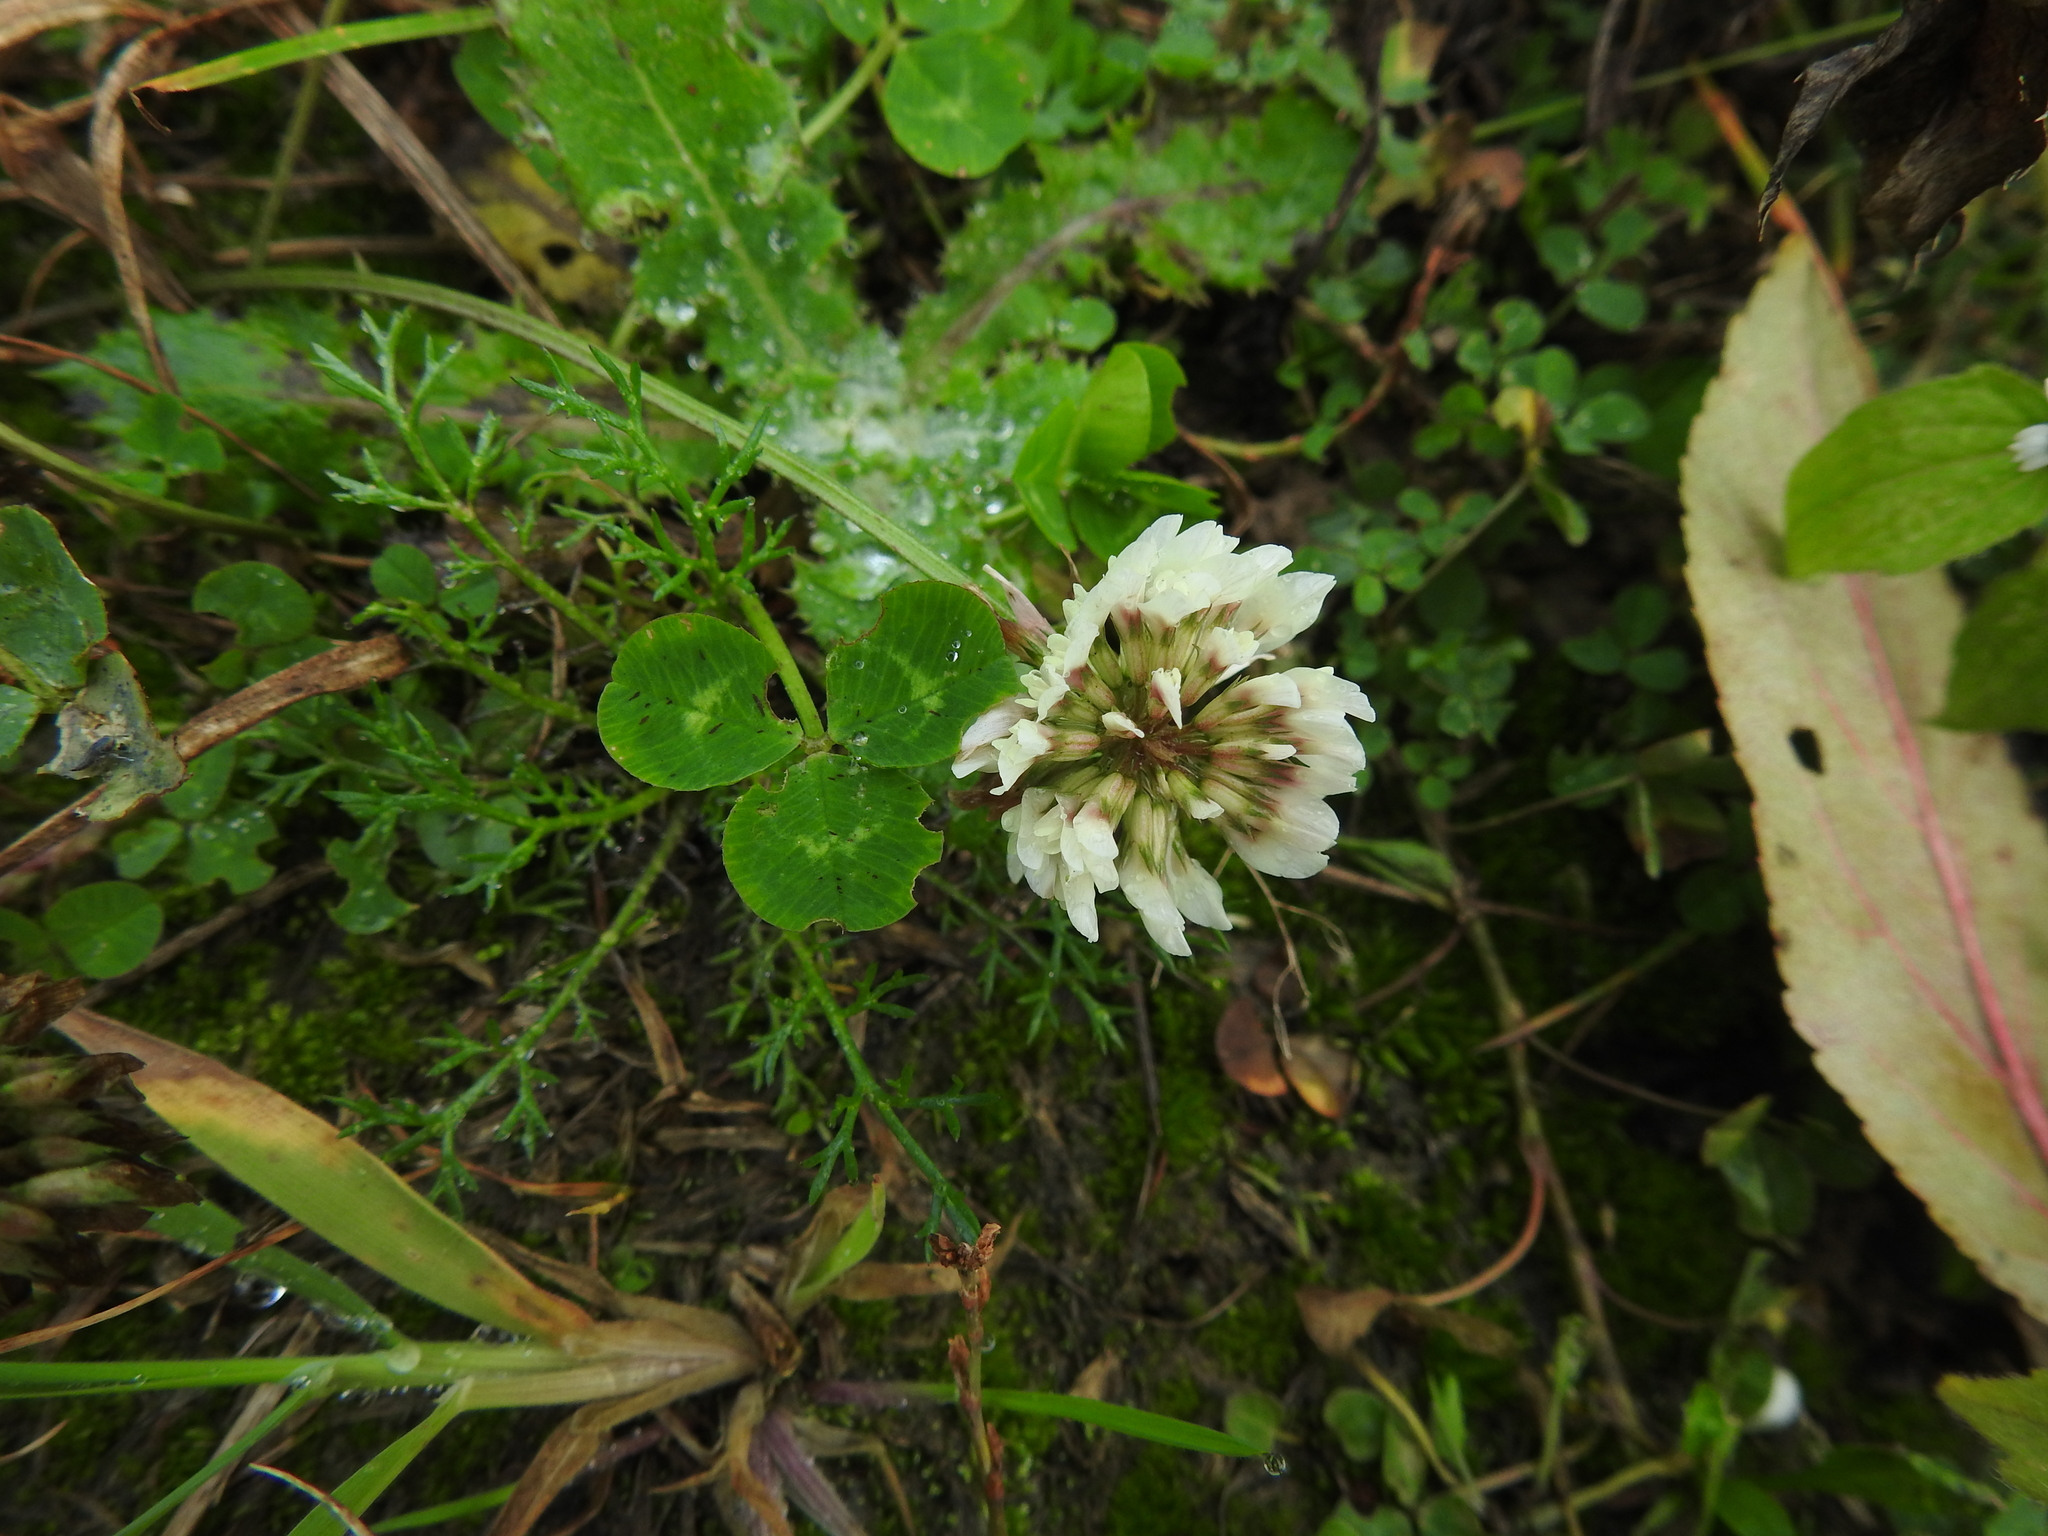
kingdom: Plantae
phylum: Tracheophyta
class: Magnoliopsida
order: Fabales
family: Fabaceae
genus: Trifolium
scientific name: Trifolium repens
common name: White clover
